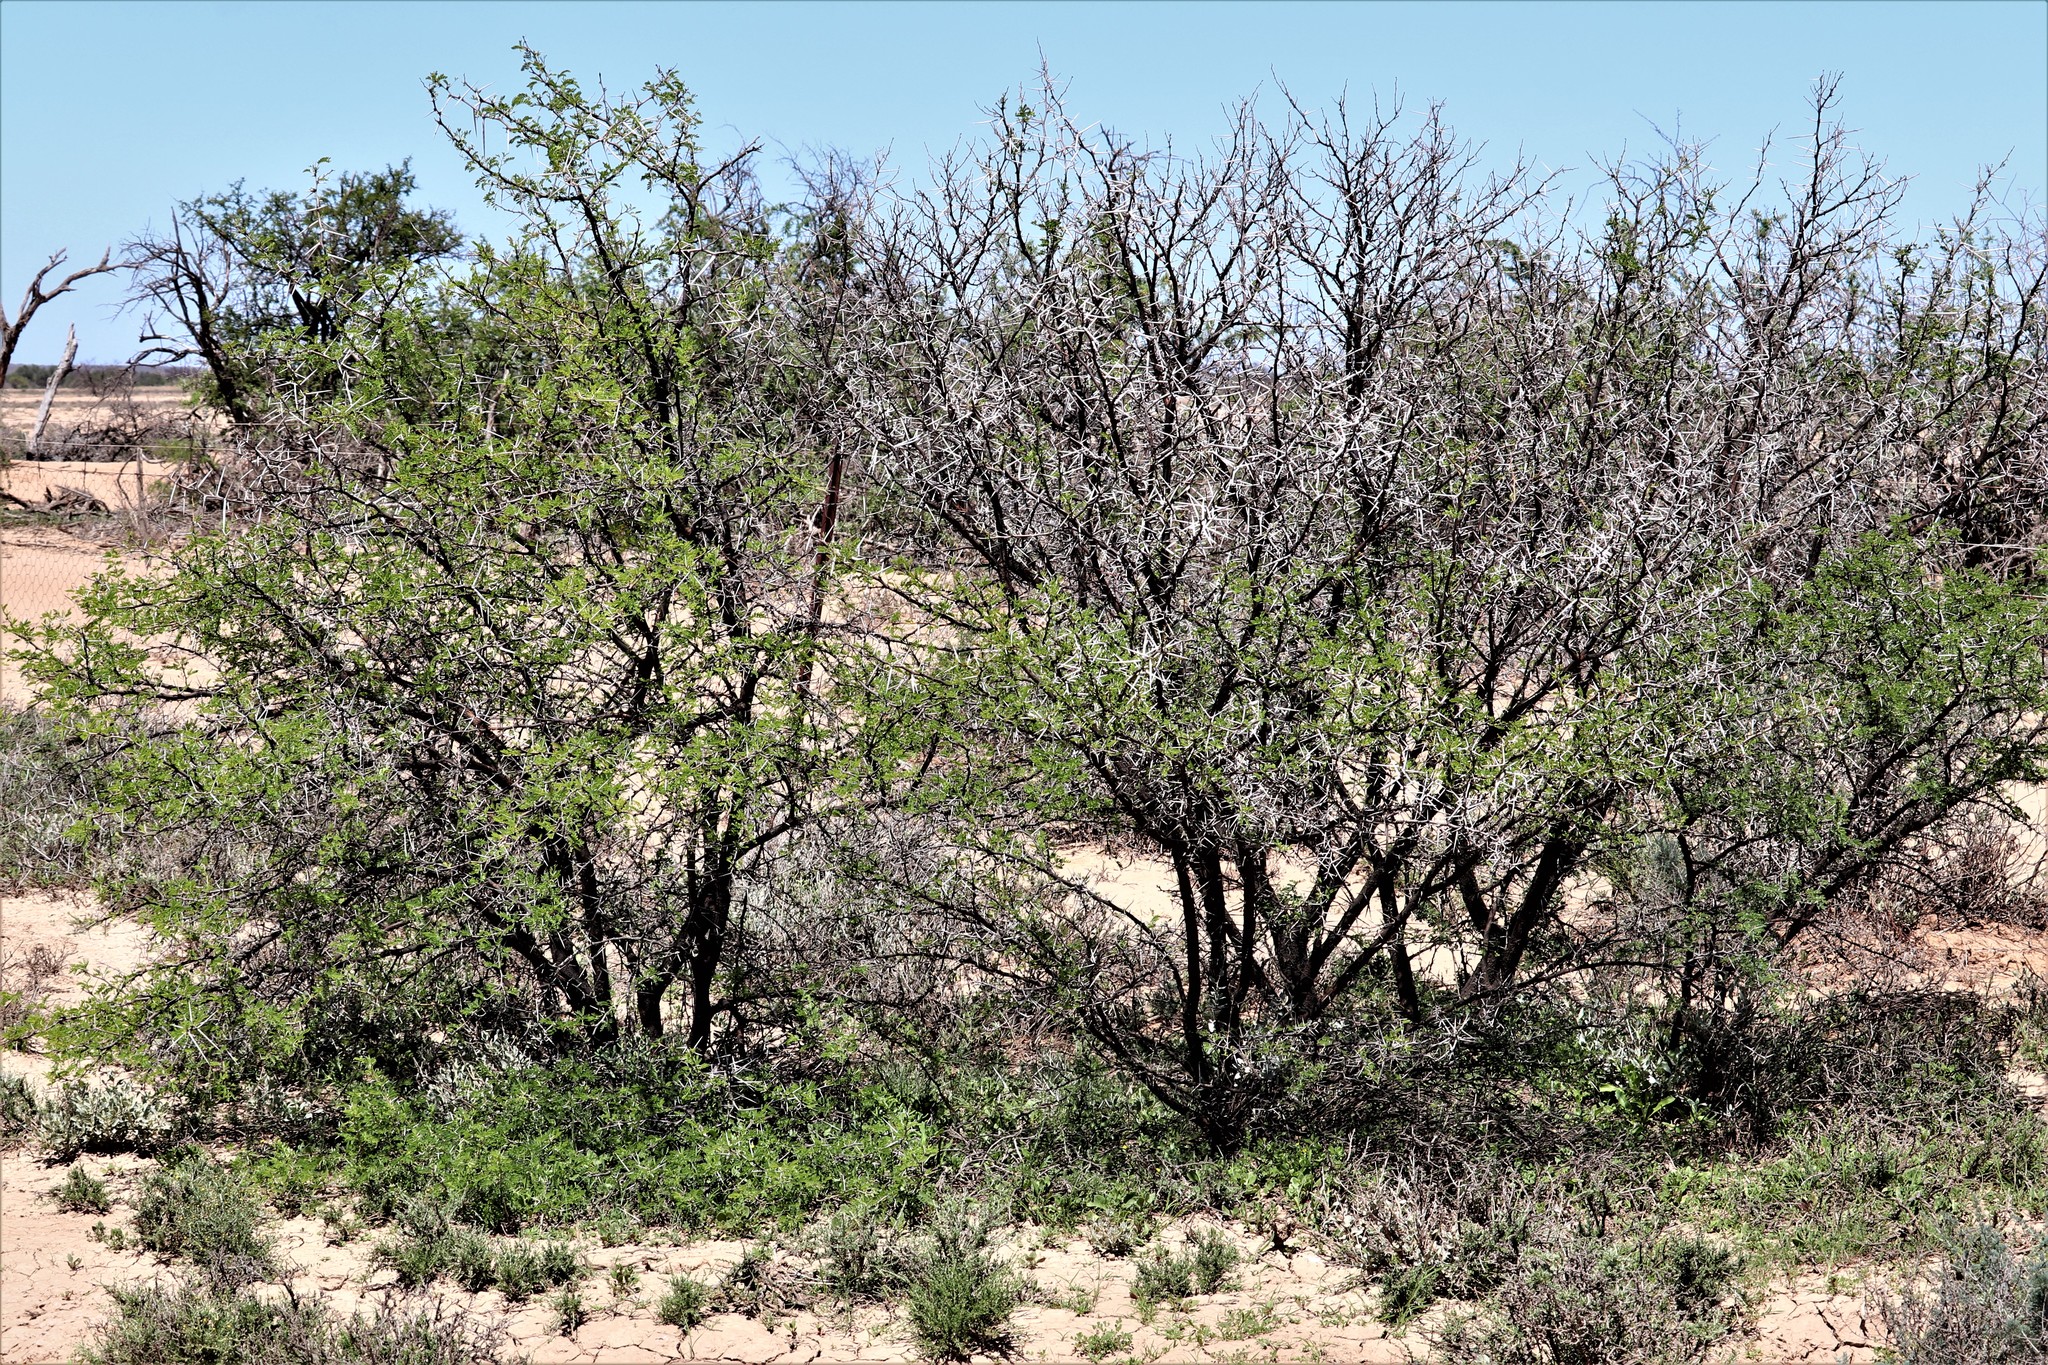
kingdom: Plantae
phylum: Tracheophyta
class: Magnoliopsida
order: Fabales
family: Fabaceae
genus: Vachellia
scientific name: Vachellia karroo
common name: Sweet thorn
